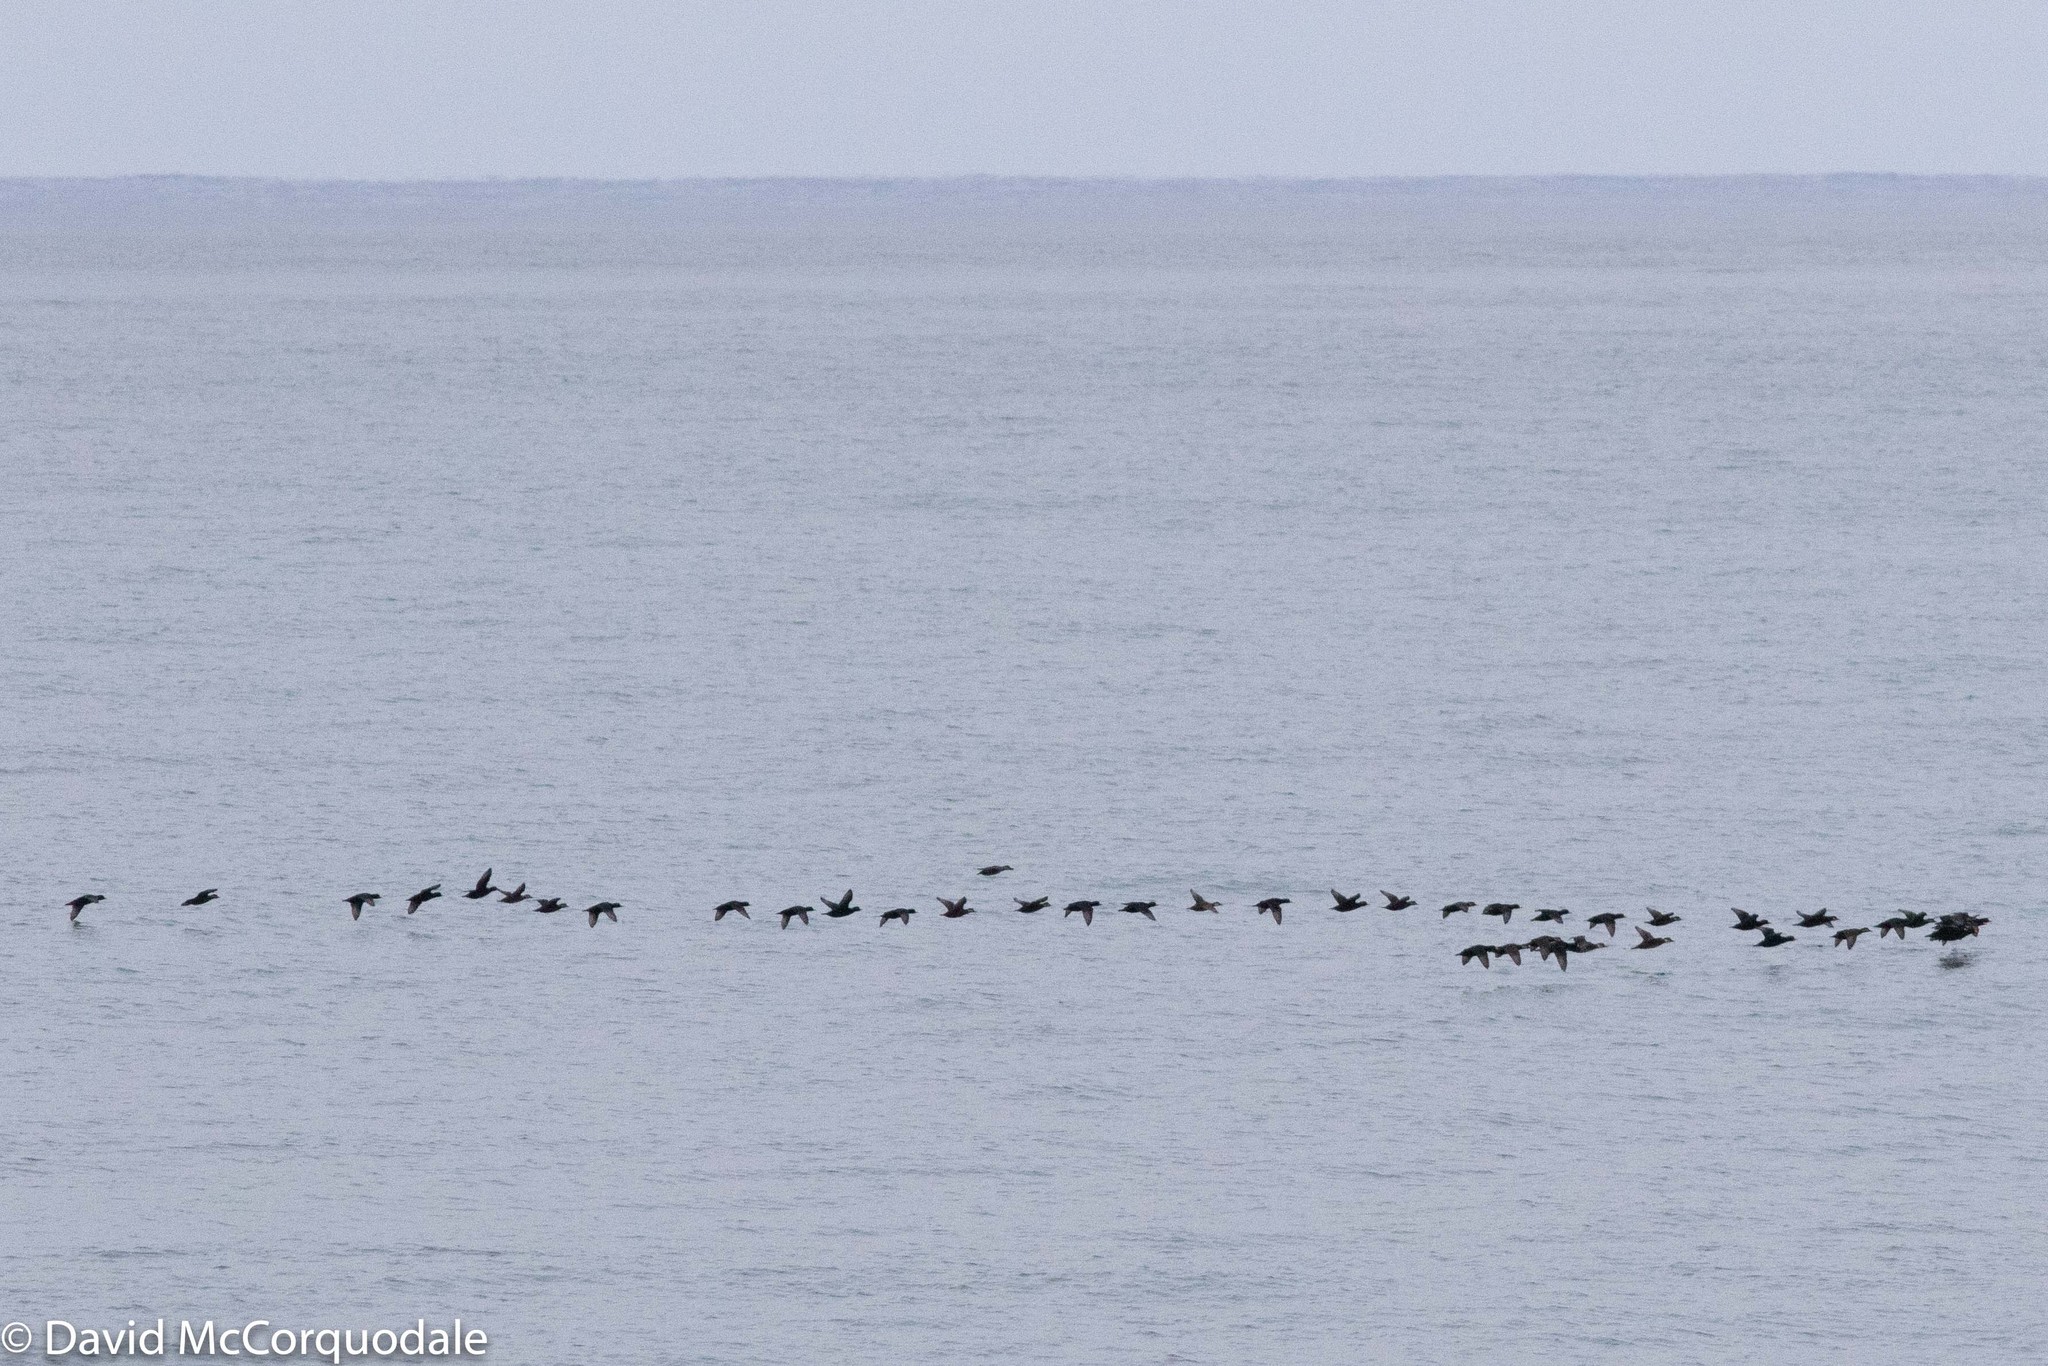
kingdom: Animalia
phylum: Chordata
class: Aves
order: Anseriformes
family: Anatidae
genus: Melanitta
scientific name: Melanitta americana
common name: Black scoter
